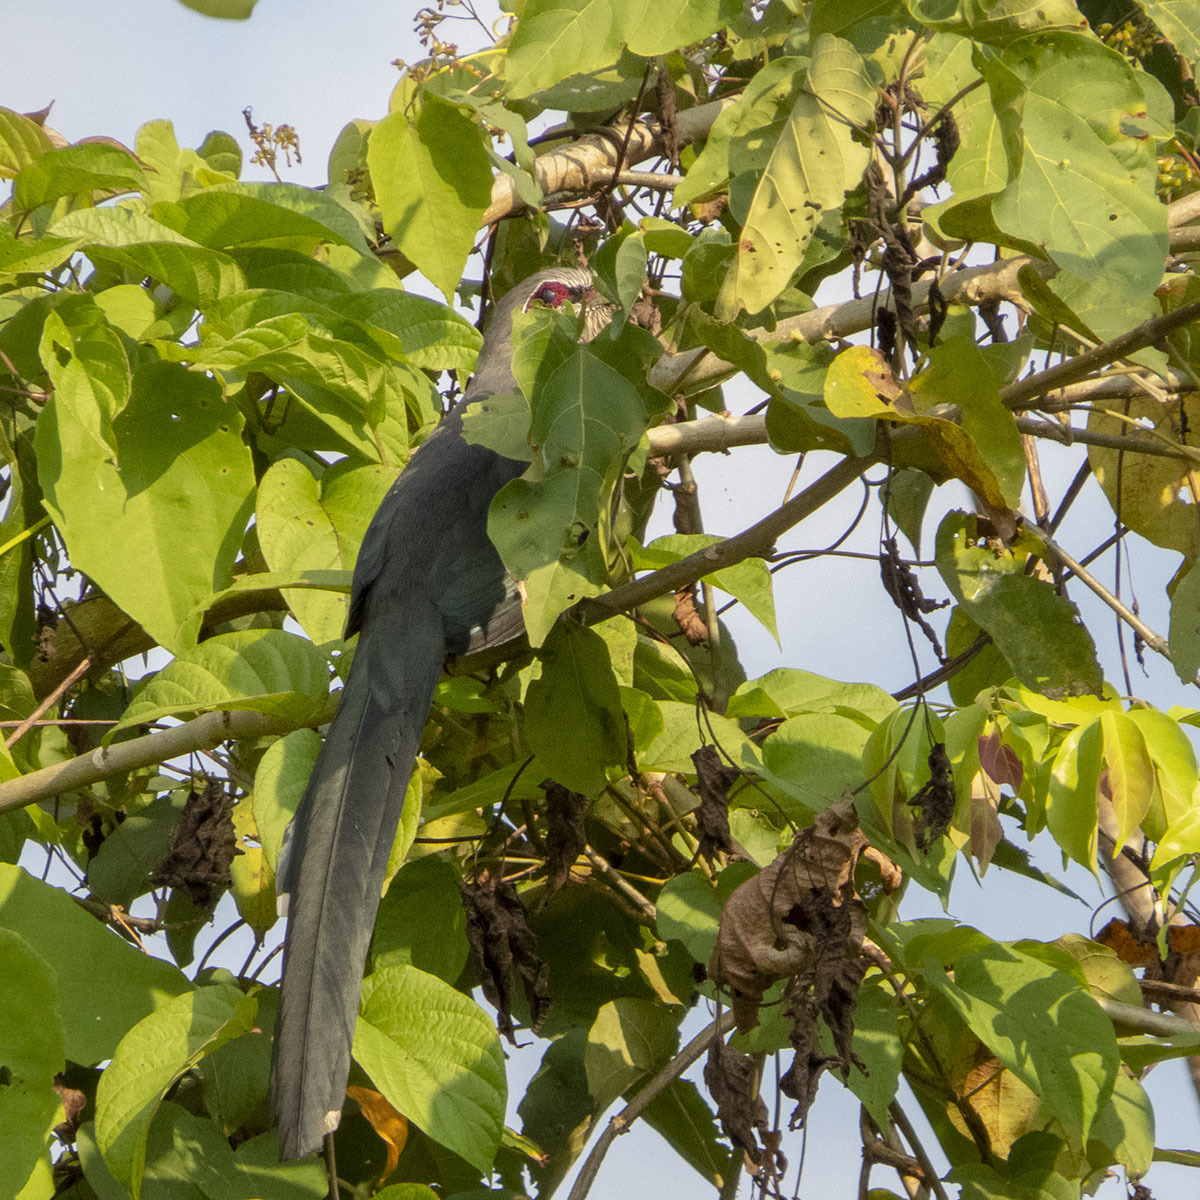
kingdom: Animalia
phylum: Chordata
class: Aves
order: Cuculiformes
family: Cuculidae
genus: Rhopodytes
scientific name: Rhopodytes tristis
